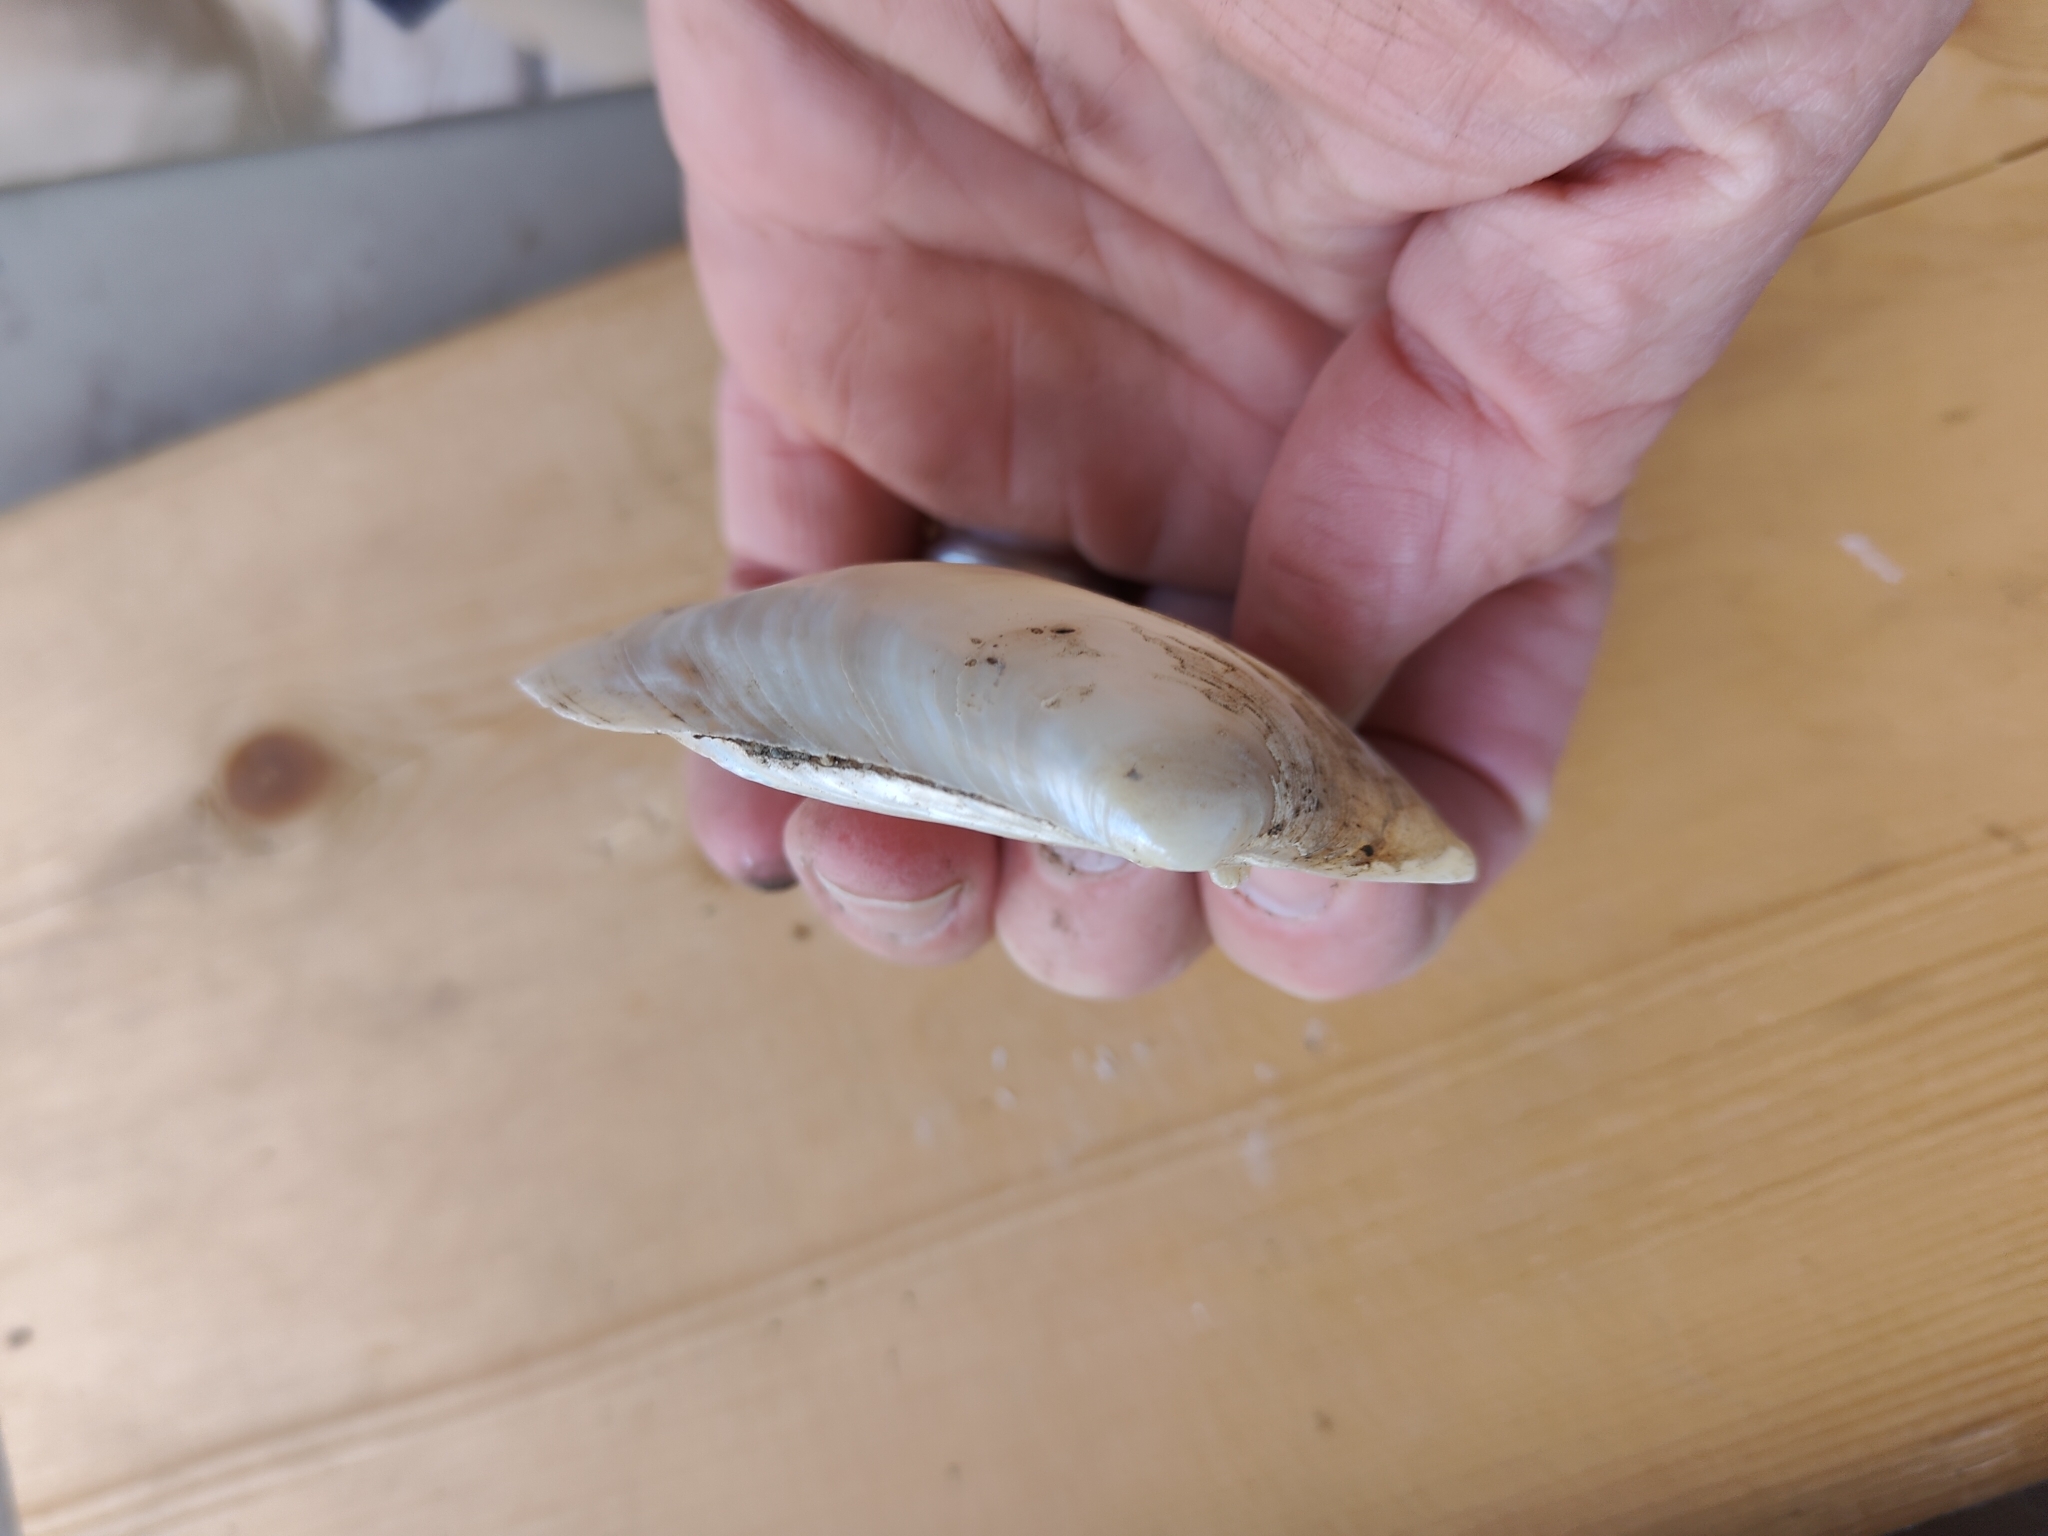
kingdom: Animalia
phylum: Mollusca
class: Bivalvia
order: Unionida
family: Unionidae
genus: Lampsilis
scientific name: Lampsilis cardium
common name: Plain pocketbook
